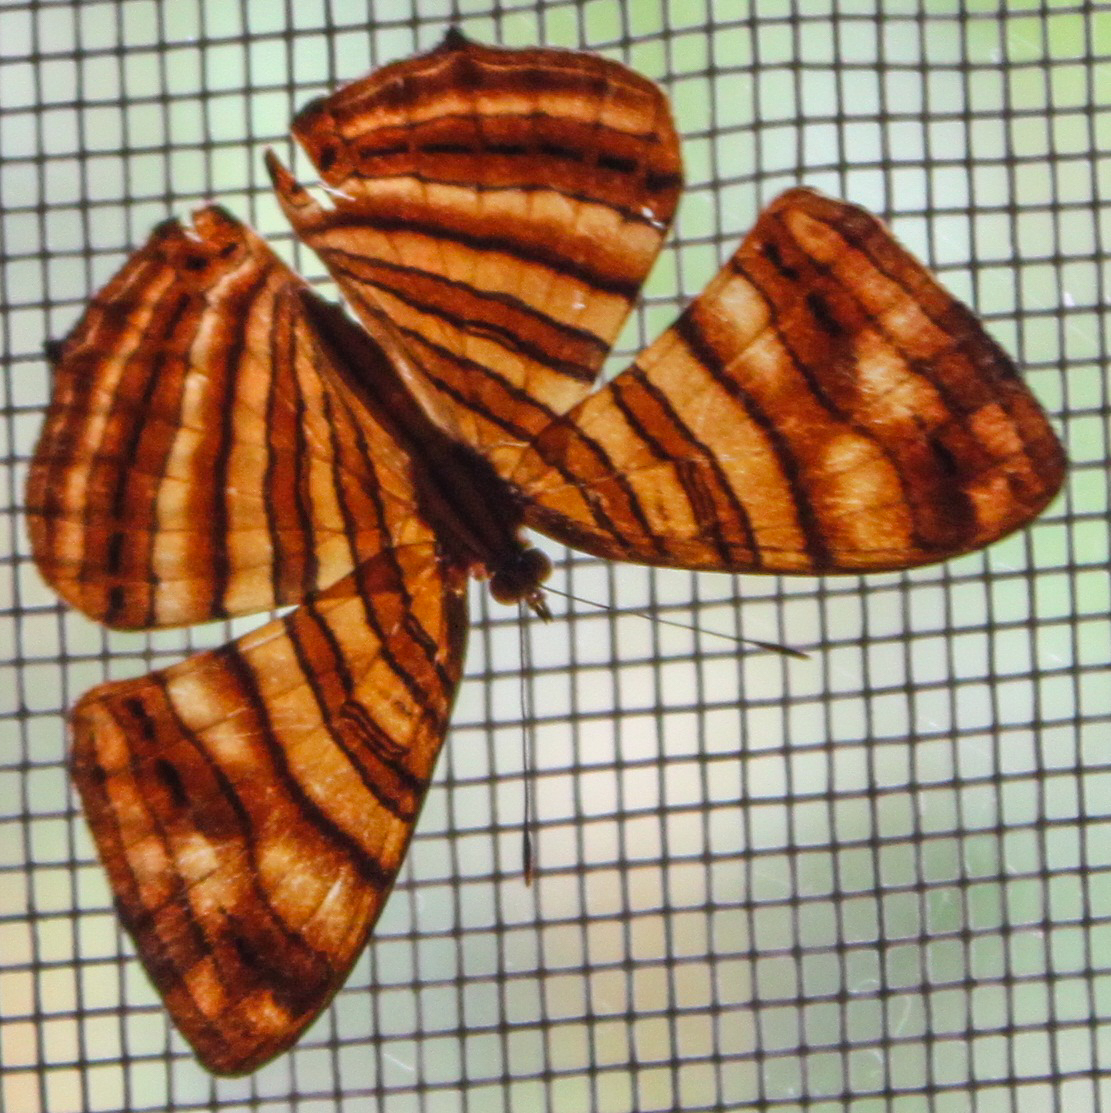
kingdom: Animalia
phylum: Arthropoda
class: Insecta
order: Lepidoptera
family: Nymphalidae
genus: Chersonesia
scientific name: Chersonesia intermedia
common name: Intermediate maplet
